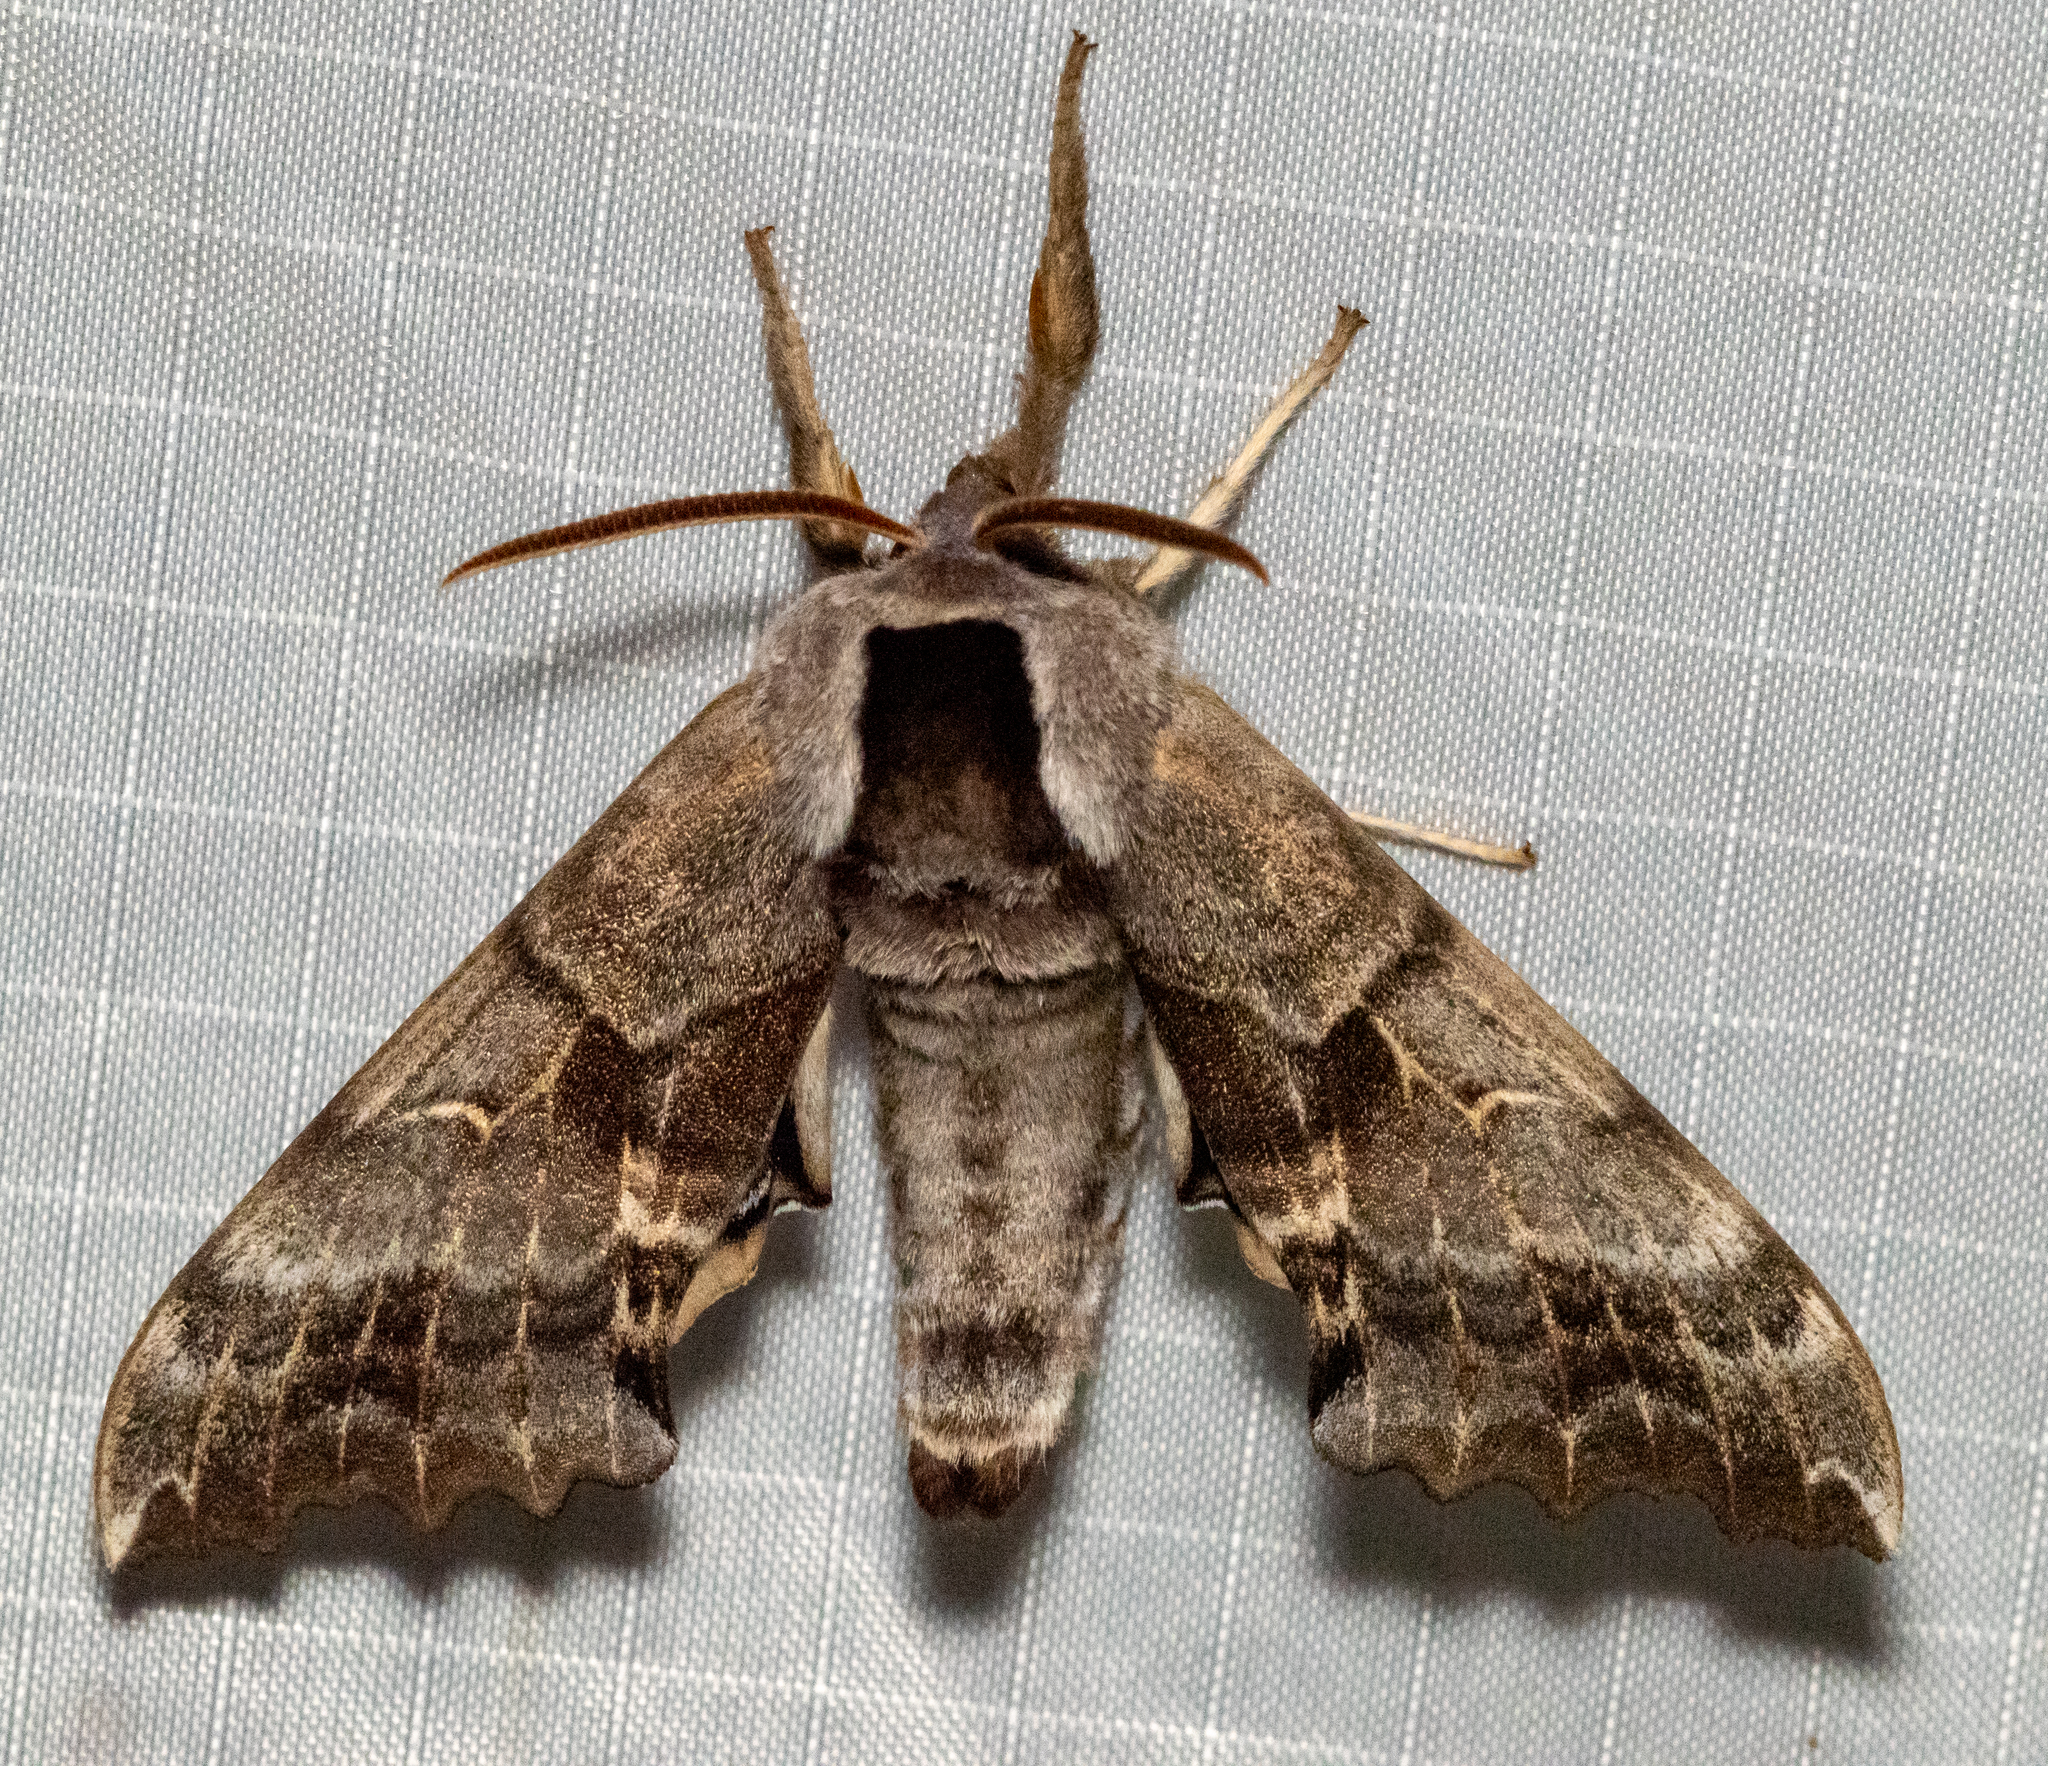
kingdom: Animalia
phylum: Arthropoda
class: Insecta
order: Lepidoptera
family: Sphingidae
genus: Smerinthus
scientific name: Smerinthus cerisyi
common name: Cerisy's sphinx moth
